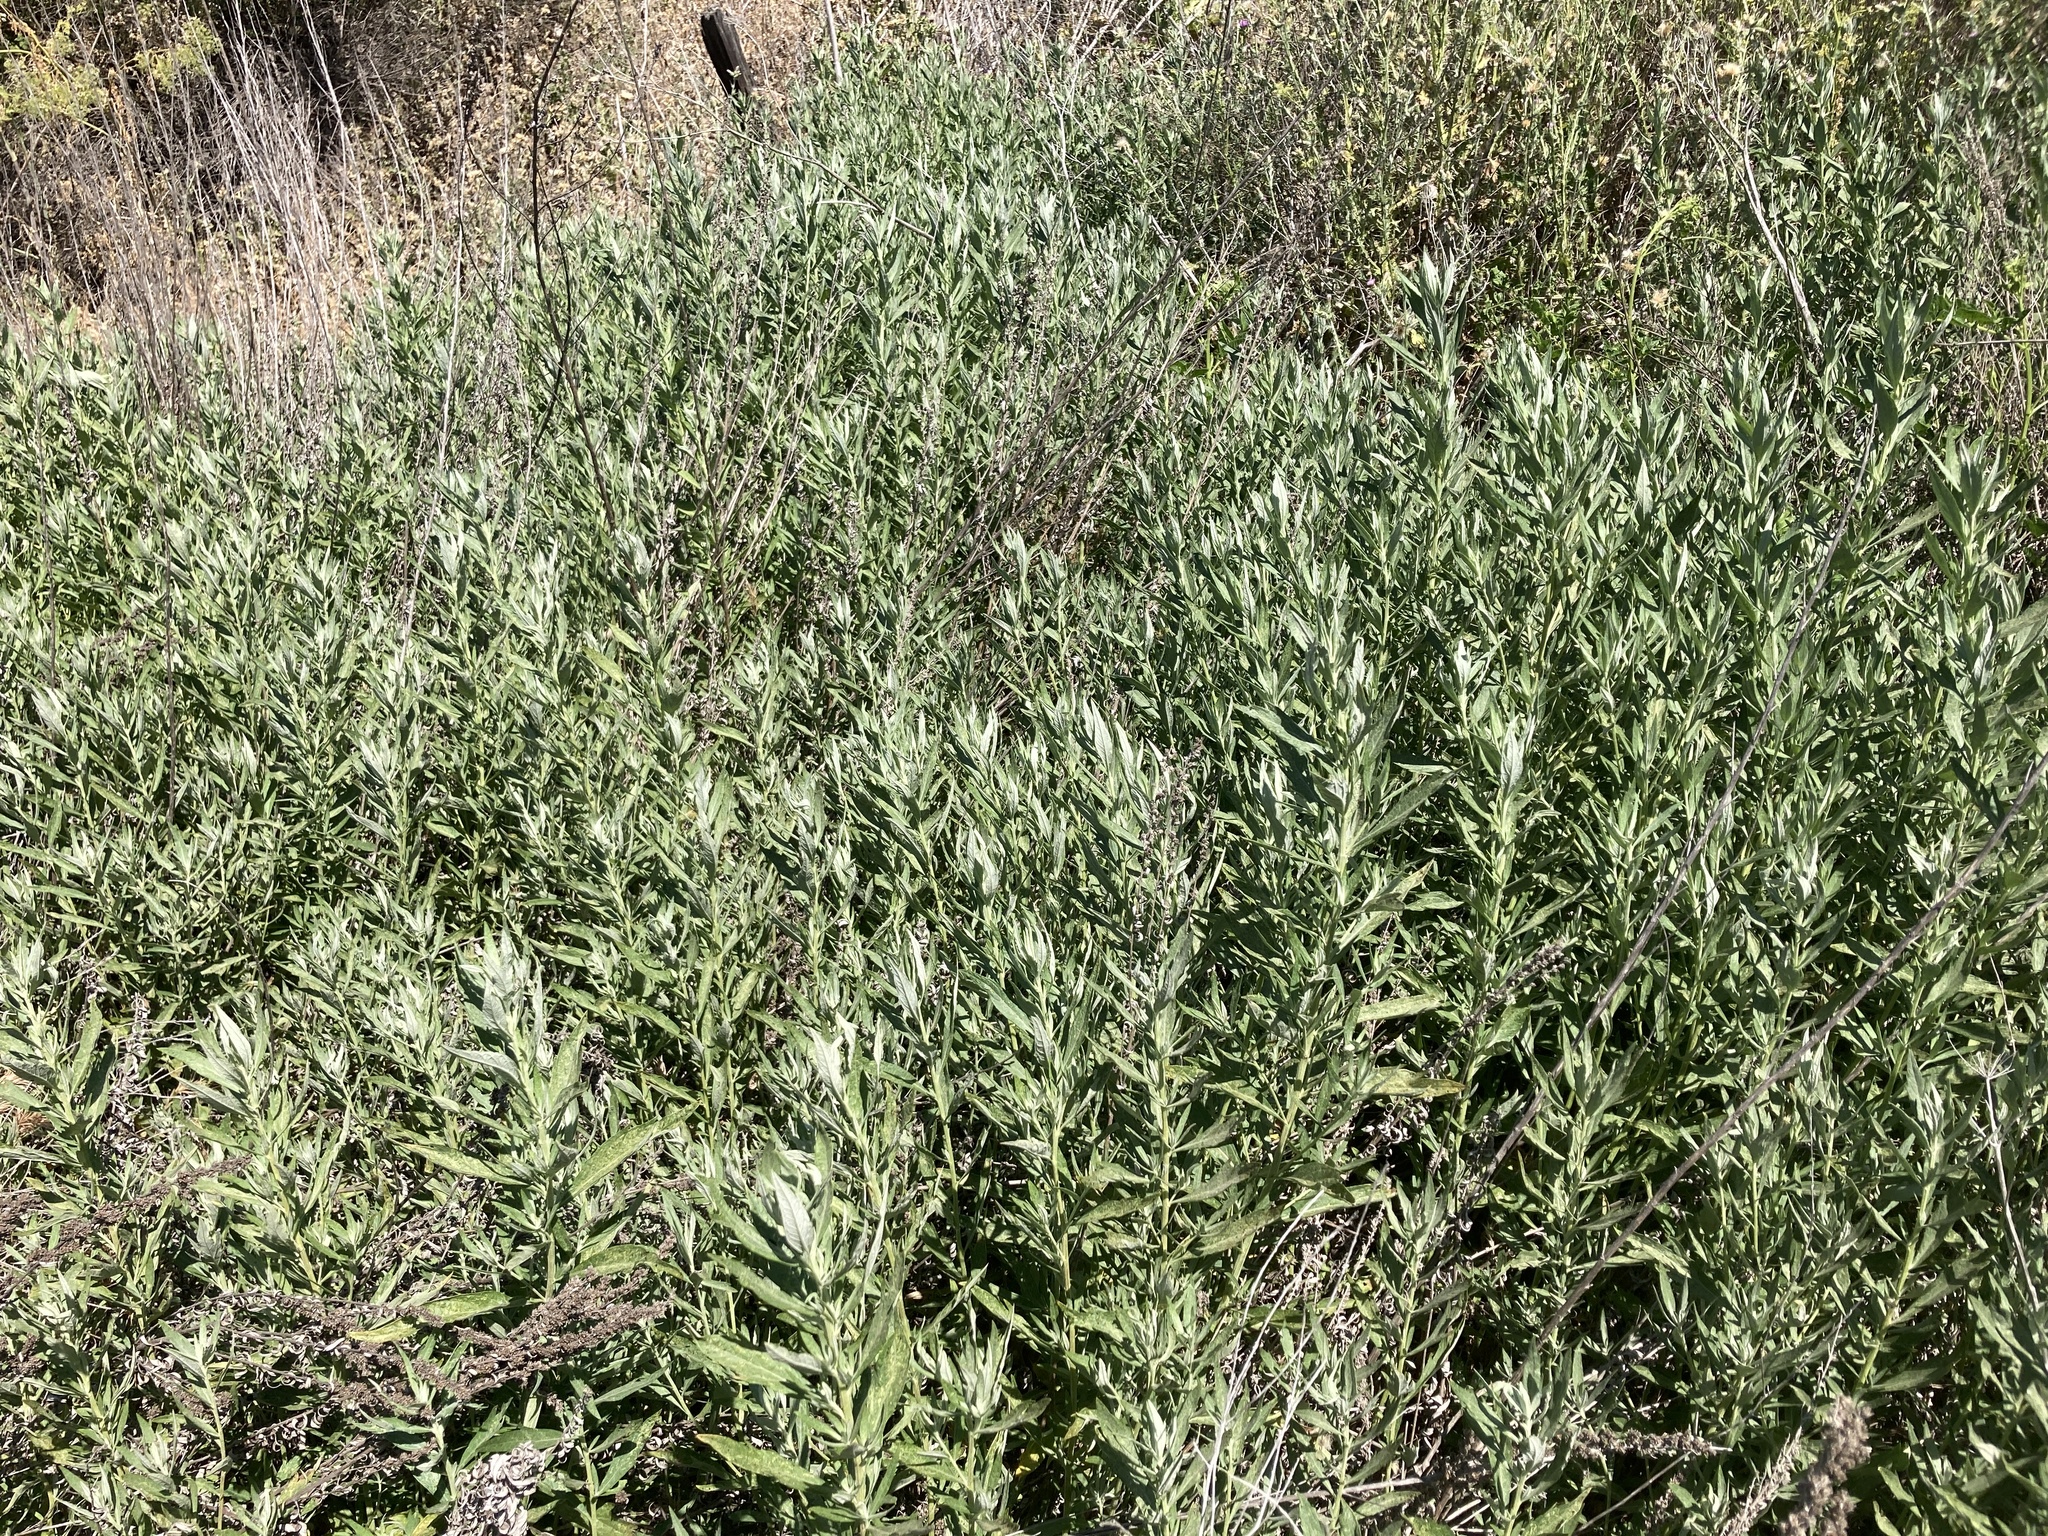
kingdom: Plantae
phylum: Tracheophyta
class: Magnoliopsida
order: Asterales
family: Asteraceae
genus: Artemisia
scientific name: Artemisia douglasiana
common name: Northwest mugwort
